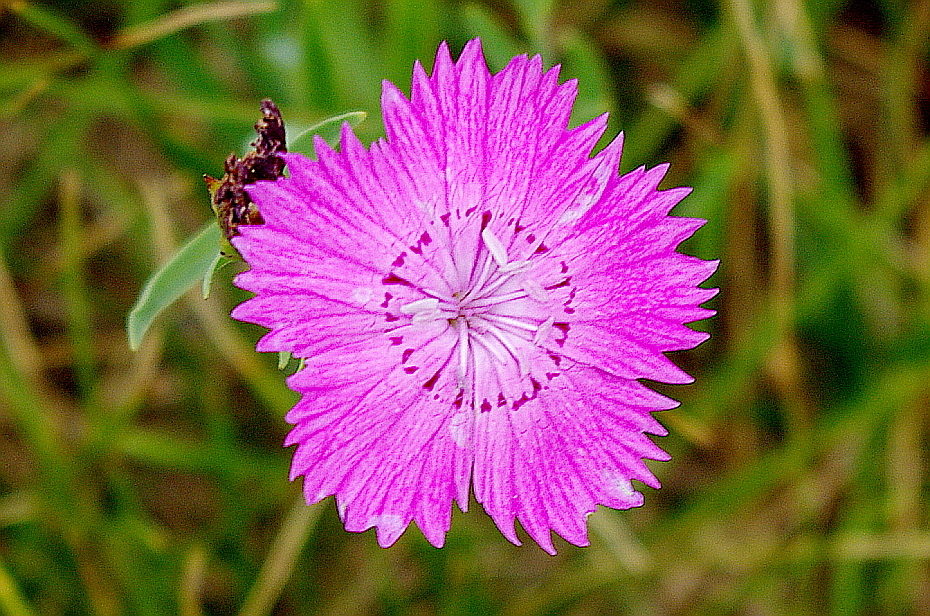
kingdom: Plantae
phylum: Tracheophyta
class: Magnoliopsida
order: Caryophyllales
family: Caryophyllaceae
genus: Dianthus
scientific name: Dianthus chinensis
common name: Rainbow pink
